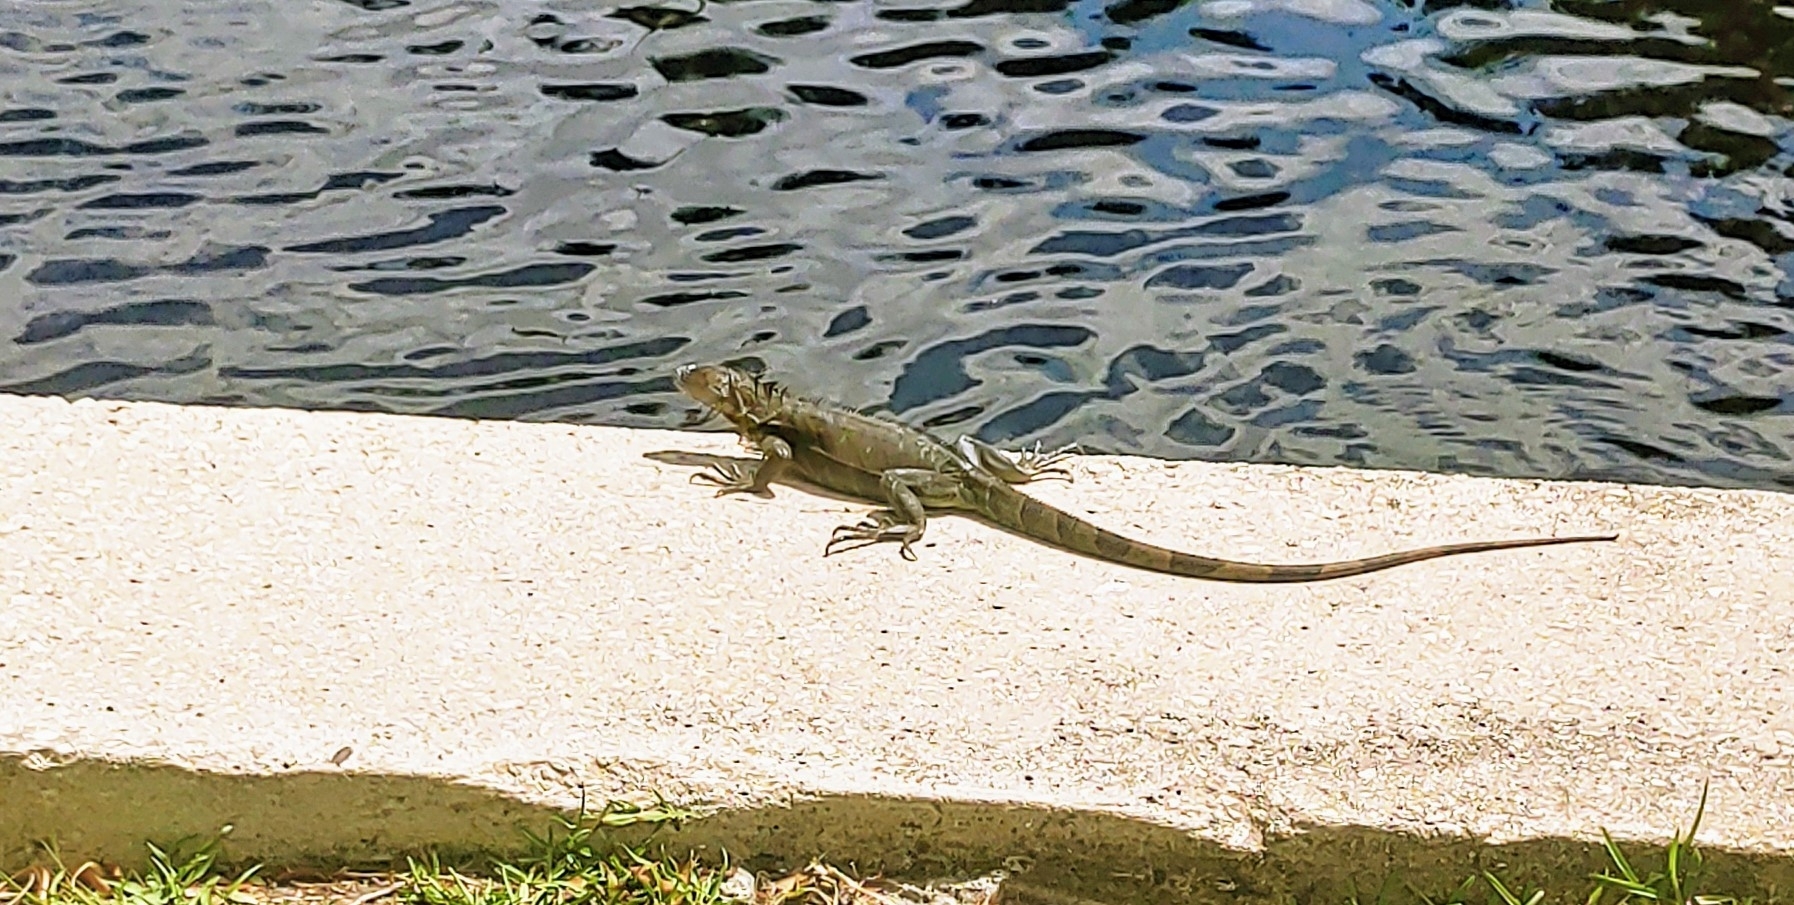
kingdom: Animalia
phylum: Chordata
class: Squamata
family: Iguanidae
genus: Iguana
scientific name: Iguana iguana
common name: Green iguana
